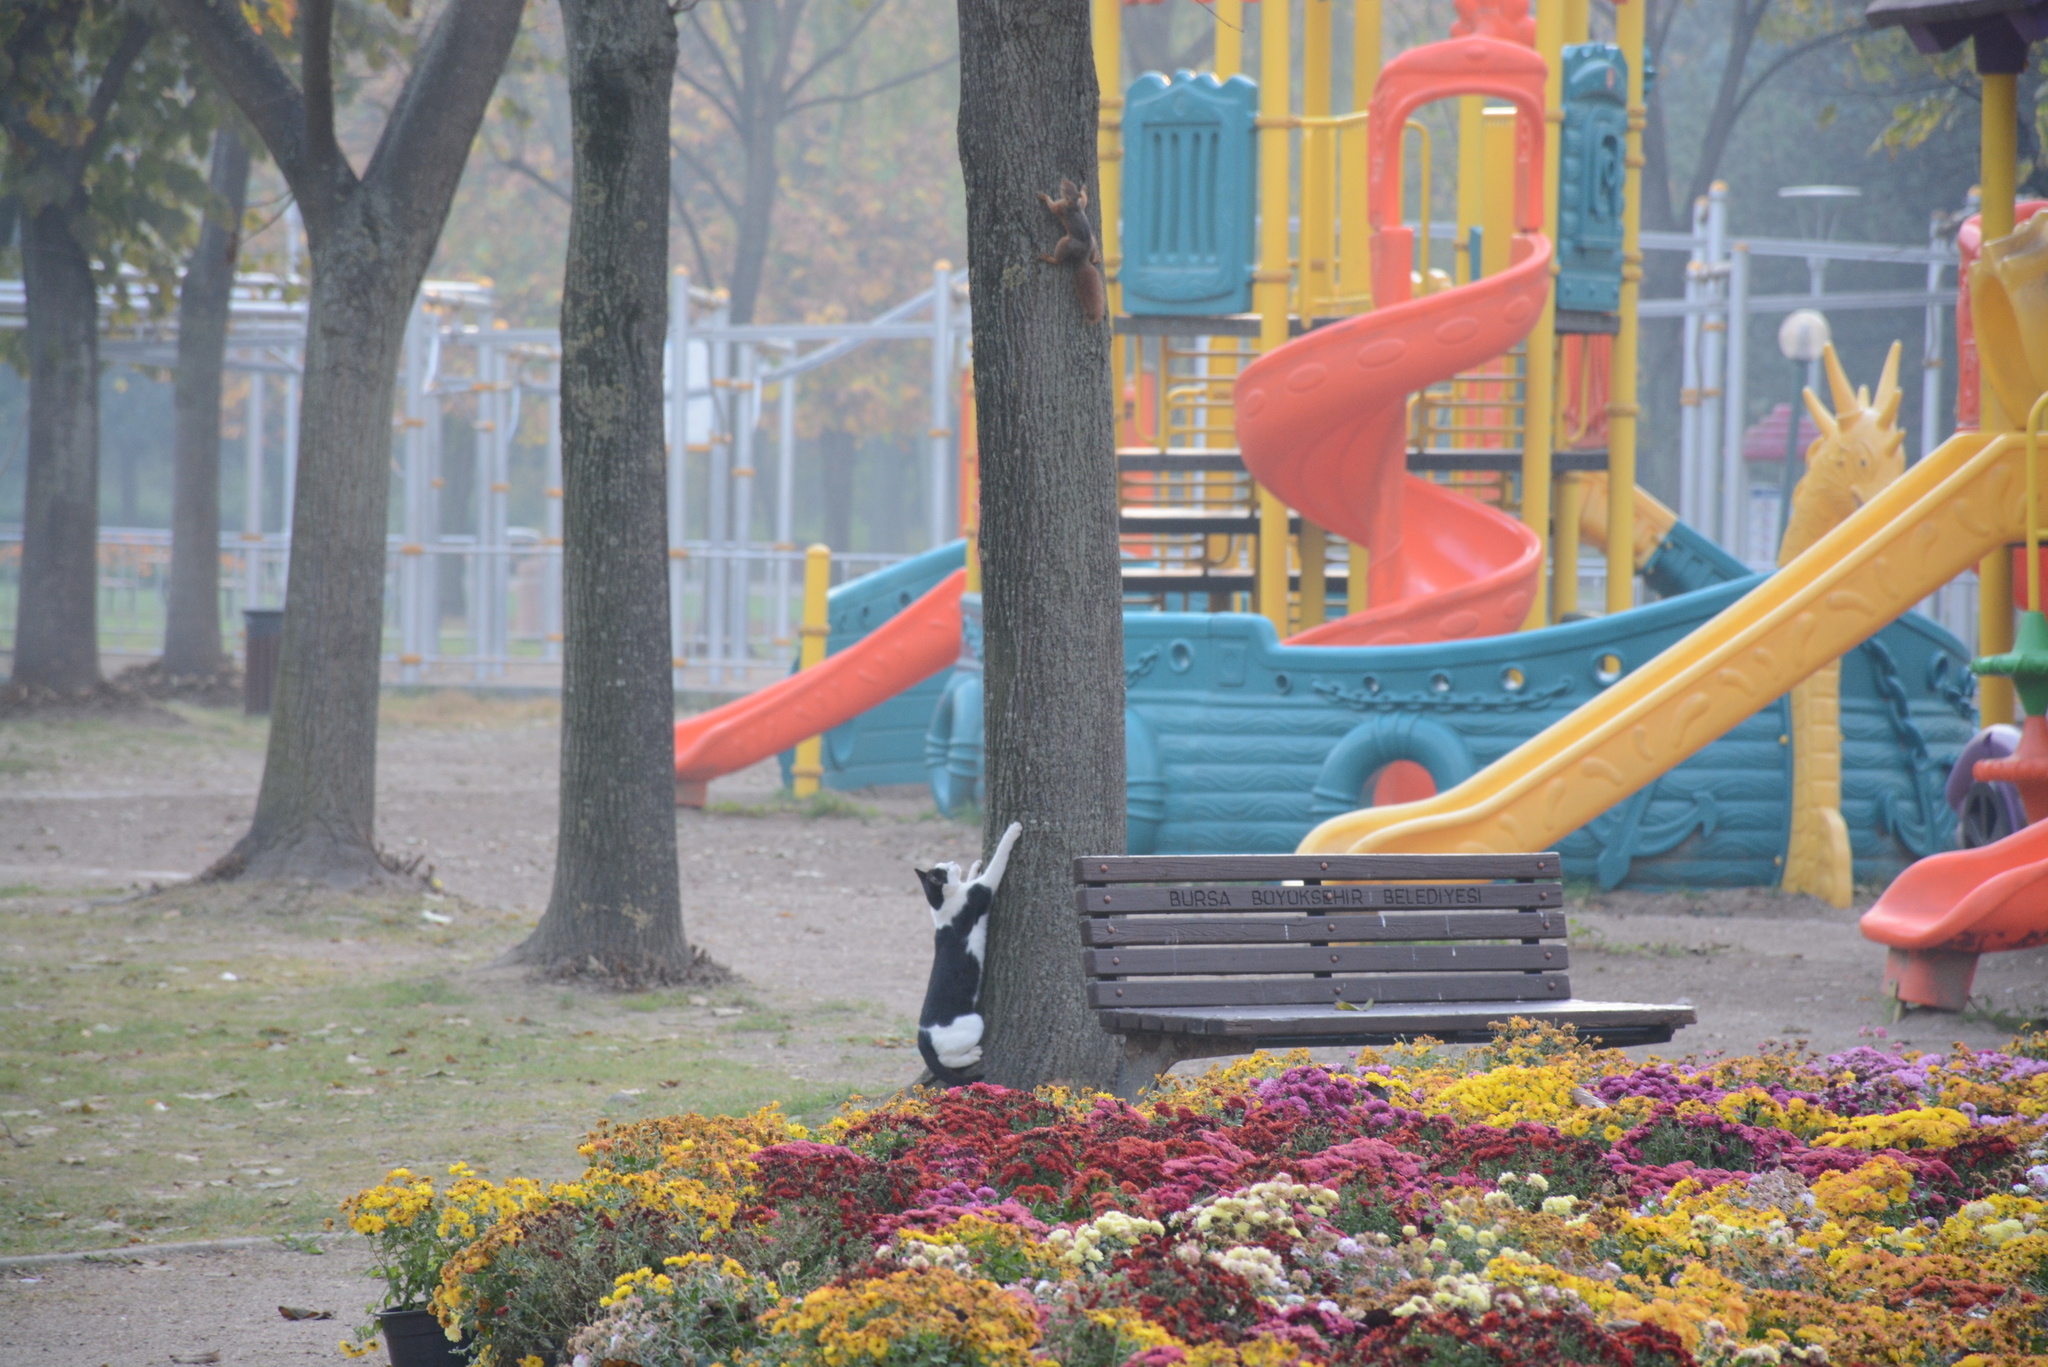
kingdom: Animalia
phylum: Chordata
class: Mammalia
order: Rodentia
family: Sciuridae
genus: Sciurus
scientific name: Sciurus anomalus
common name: Caucasian squirrel
